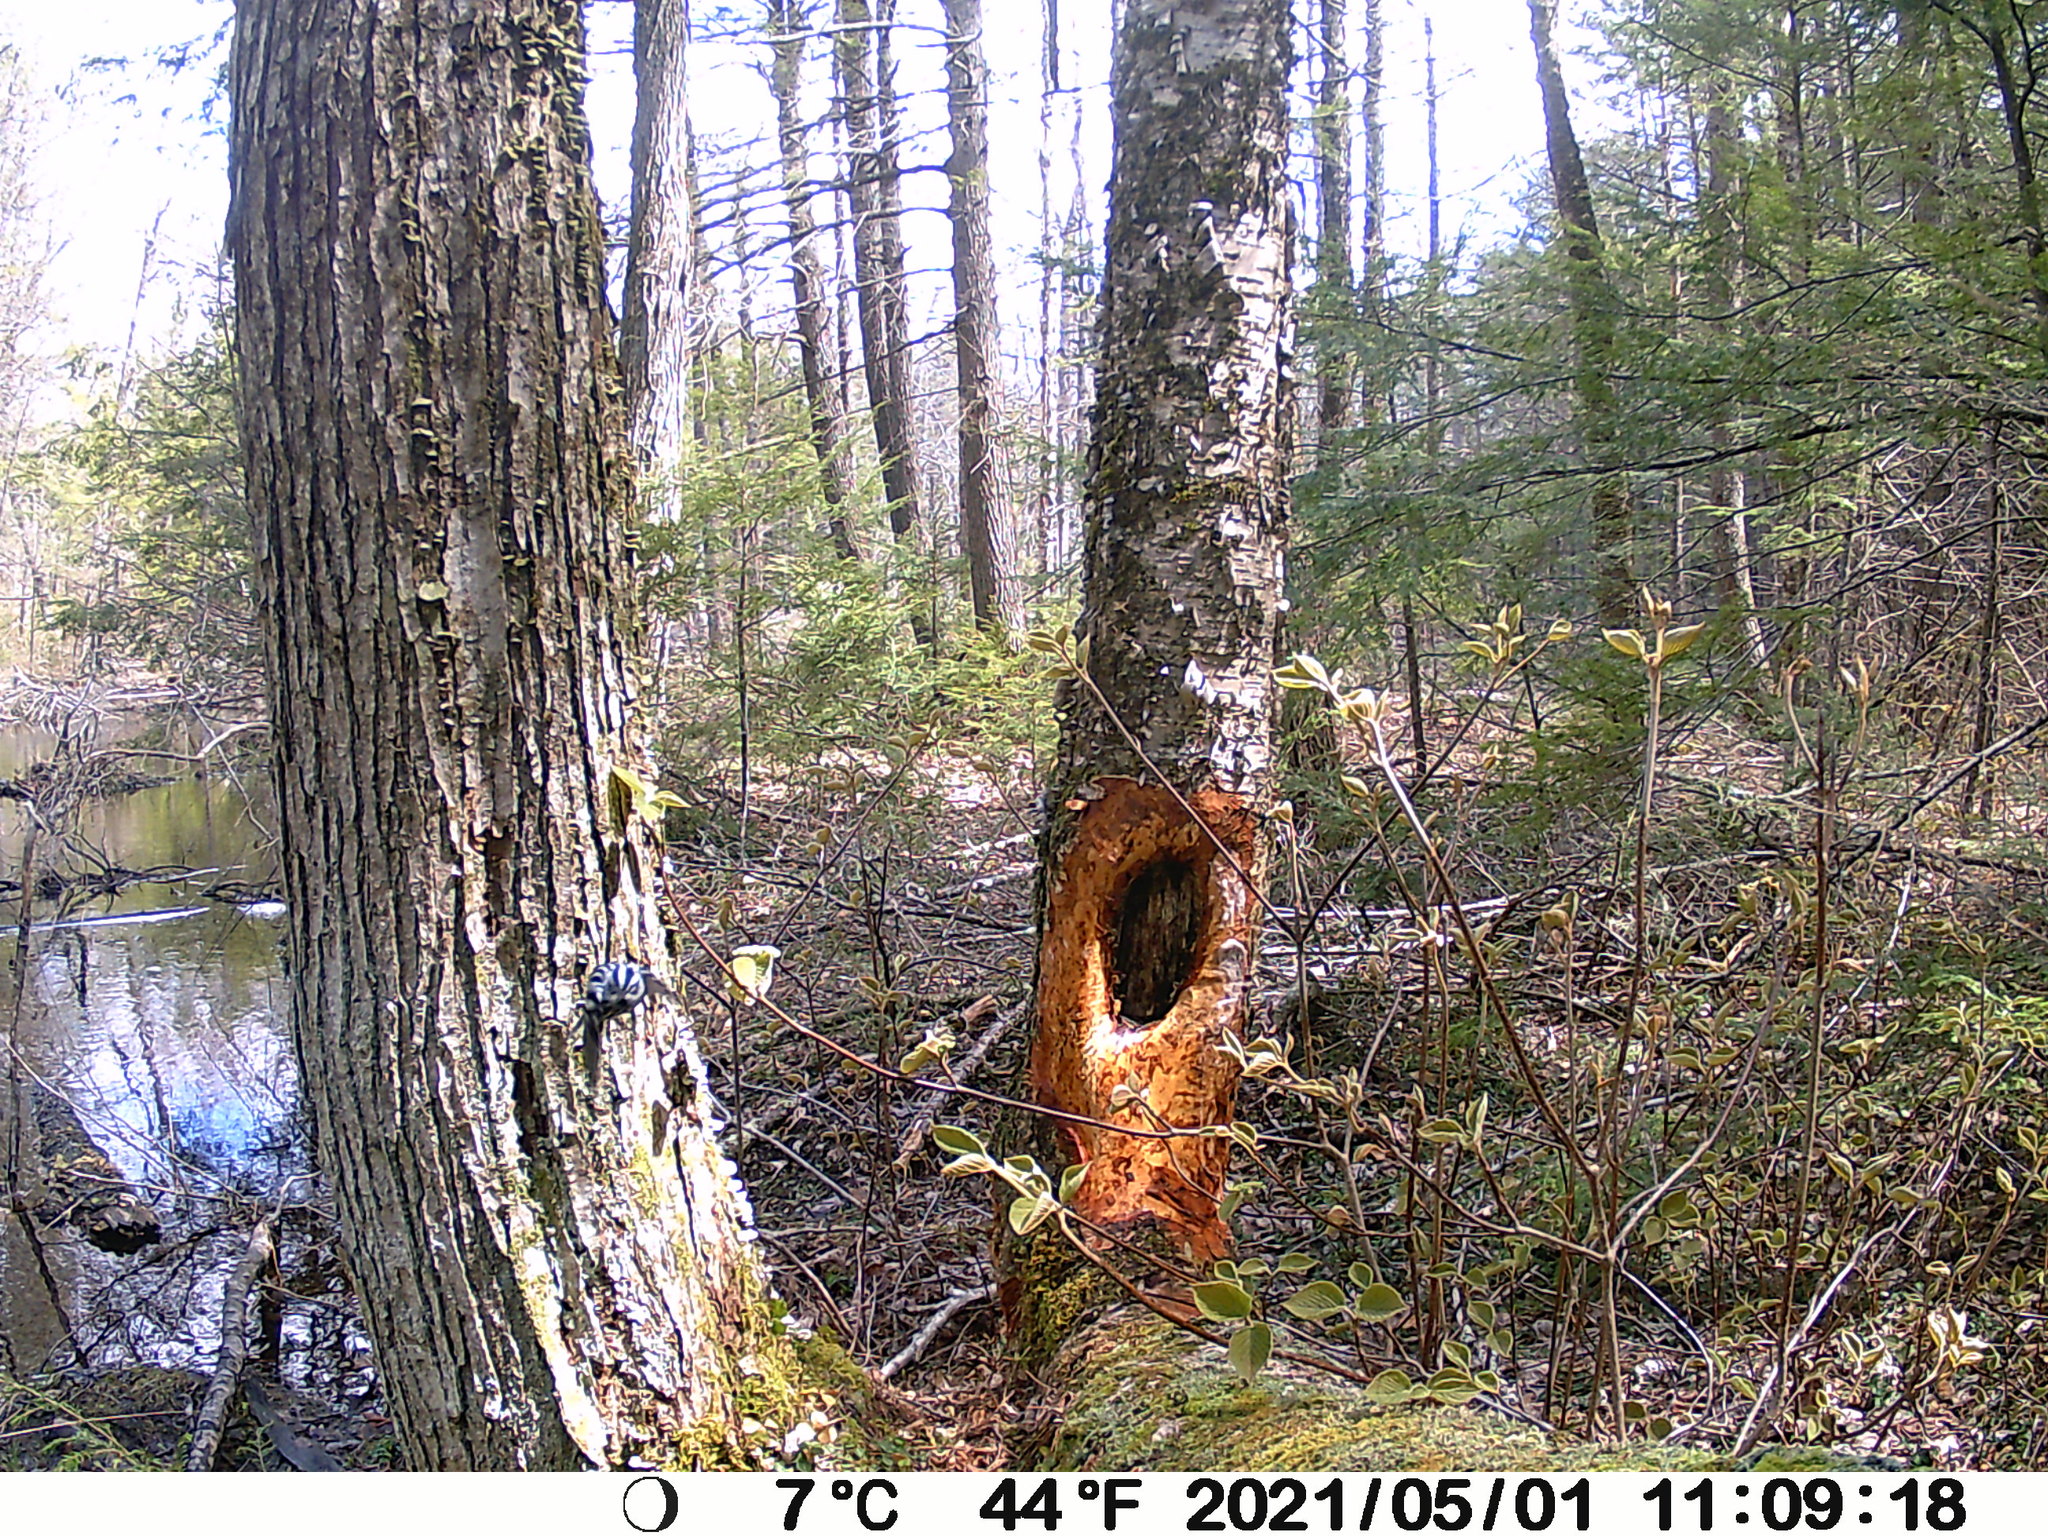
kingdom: Animalia
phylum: Chordata
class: Aves
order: Passeriformes
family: Parulidae
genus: Mniotilta
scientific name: Mniotilta varia
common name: Black-and-white warbler
